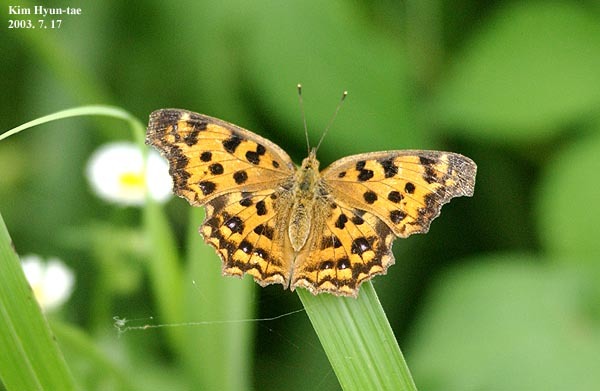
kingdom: Animalia
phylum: Arthropoda
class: Insecta
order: Lepidoptera
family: Nymphalidae
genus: Polygonia
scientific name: Polygonia c-aureum
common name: Asian comma
